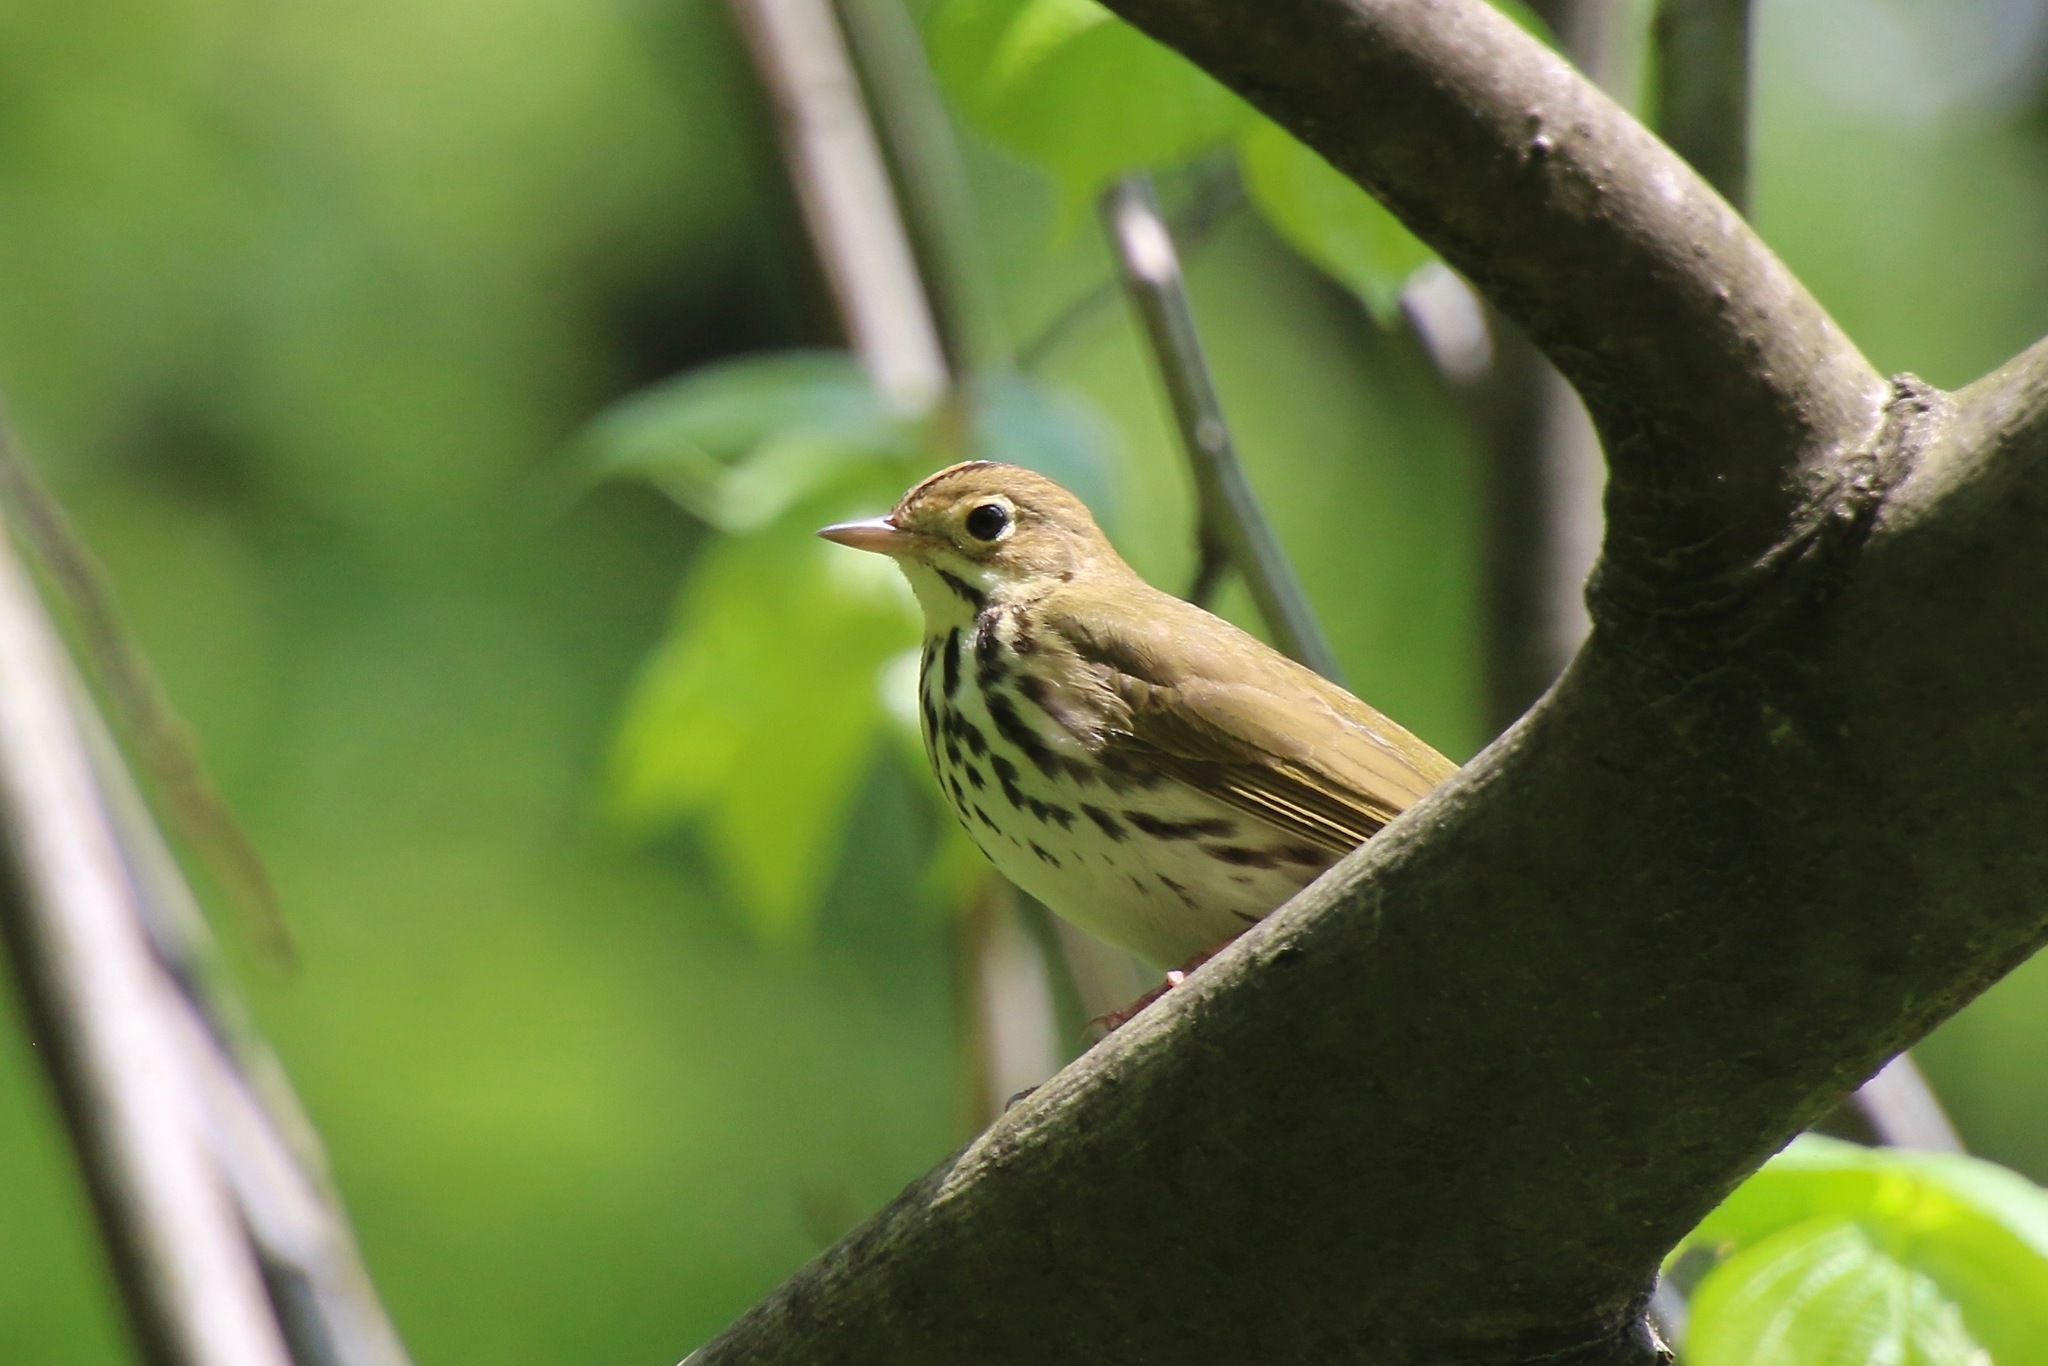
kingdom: Animalia
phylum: Chordata
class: Aves
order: Passeriformes
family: Parulidae
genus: Seiurus
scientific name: Seiurus aurocapilla
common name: Ovenbird
